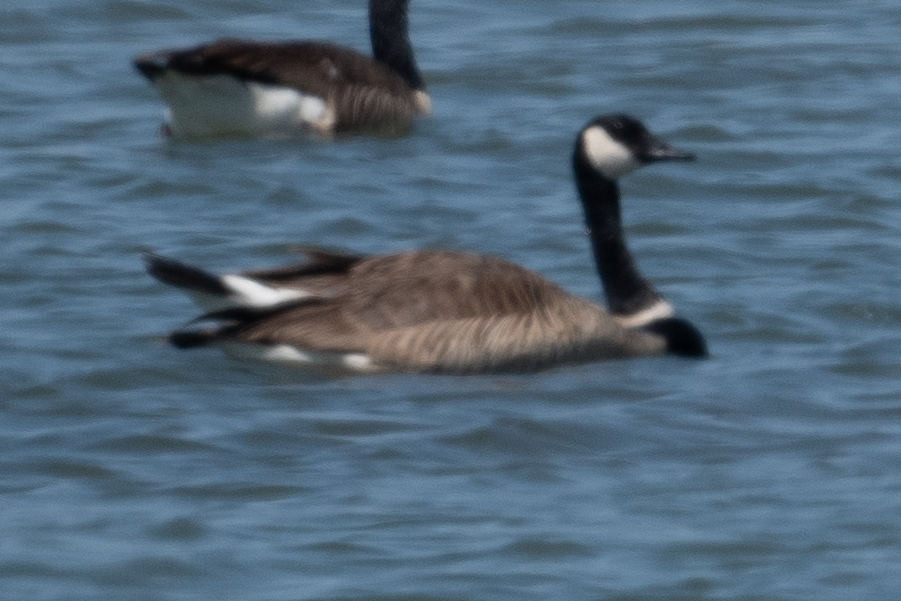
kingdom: Animalia
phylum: Chordata
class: Aves
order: Anseriformes
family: Anatidae
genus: Branta
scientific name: Branta canadensis
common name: Canada goose
